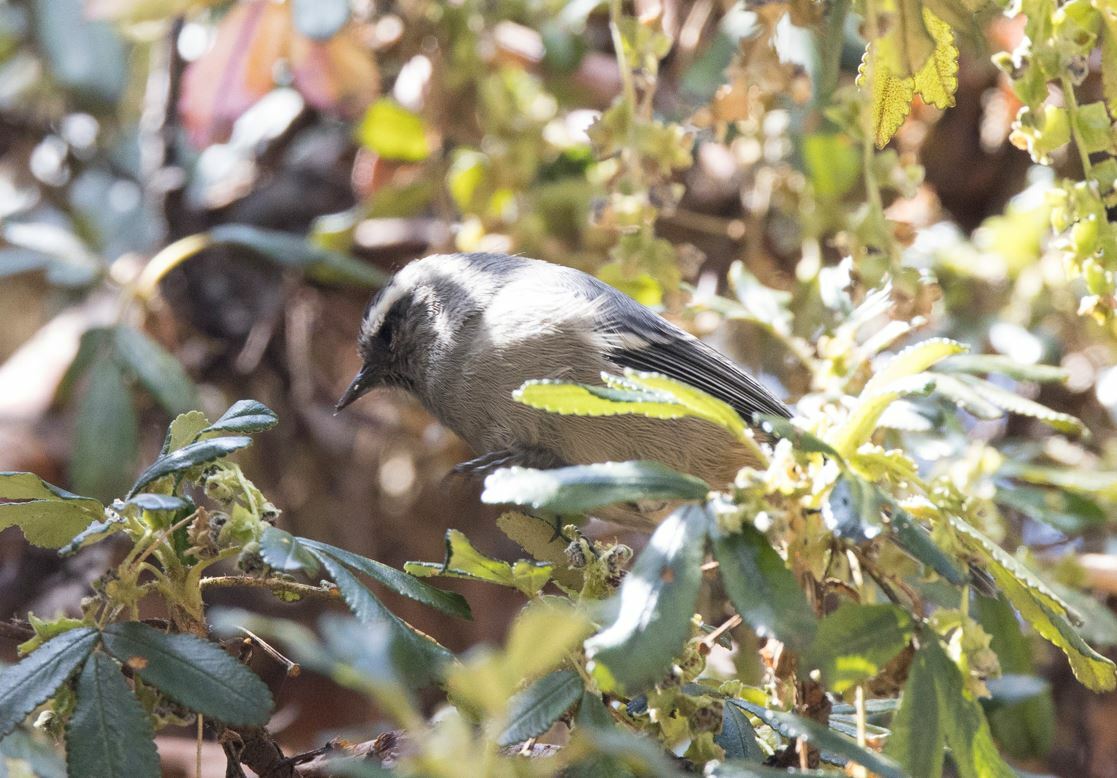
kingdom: Animalia
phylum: Chordata
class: Aves
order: Passeriformes
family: Thraupidae
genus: Conirostrum
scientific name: Conirostrum cinereum
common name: Cinereous conebill
